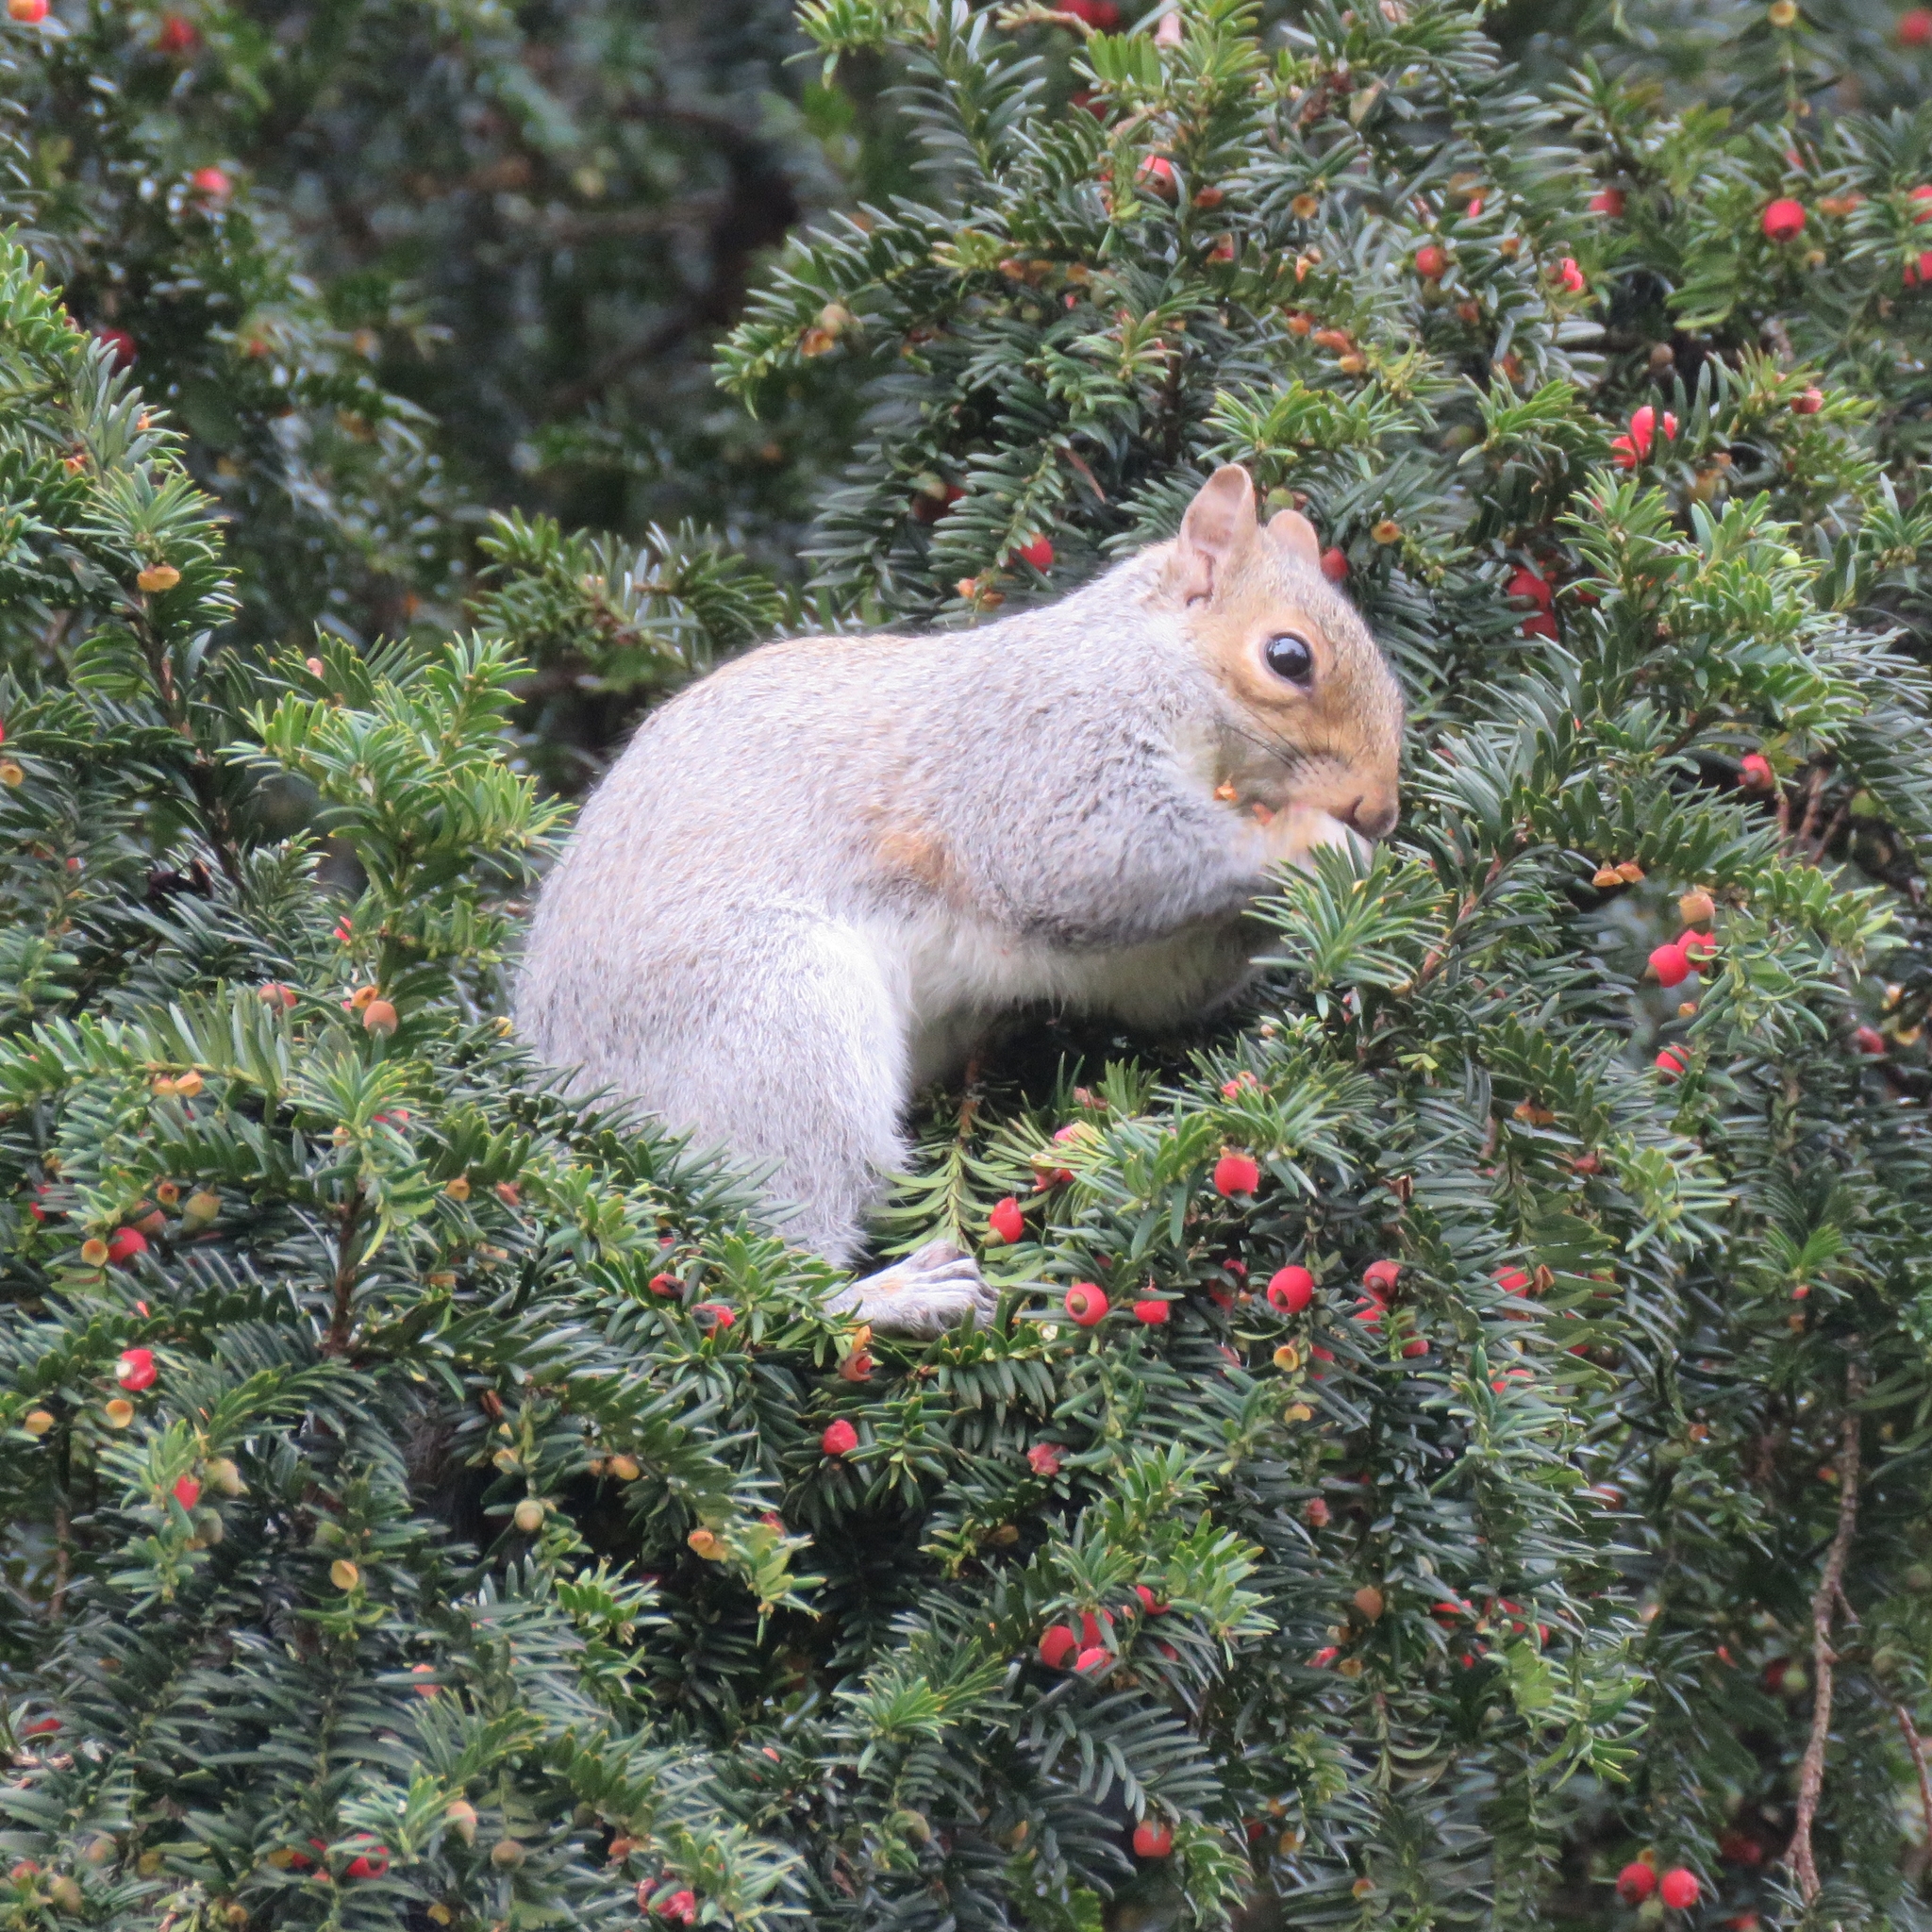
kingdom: Animalia
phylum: Chordata
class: Mammalia
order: Rodentia
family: Sciuridae
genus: Sciurus
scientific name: Sciurus carolinensis
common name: Eastern gray squirrel
